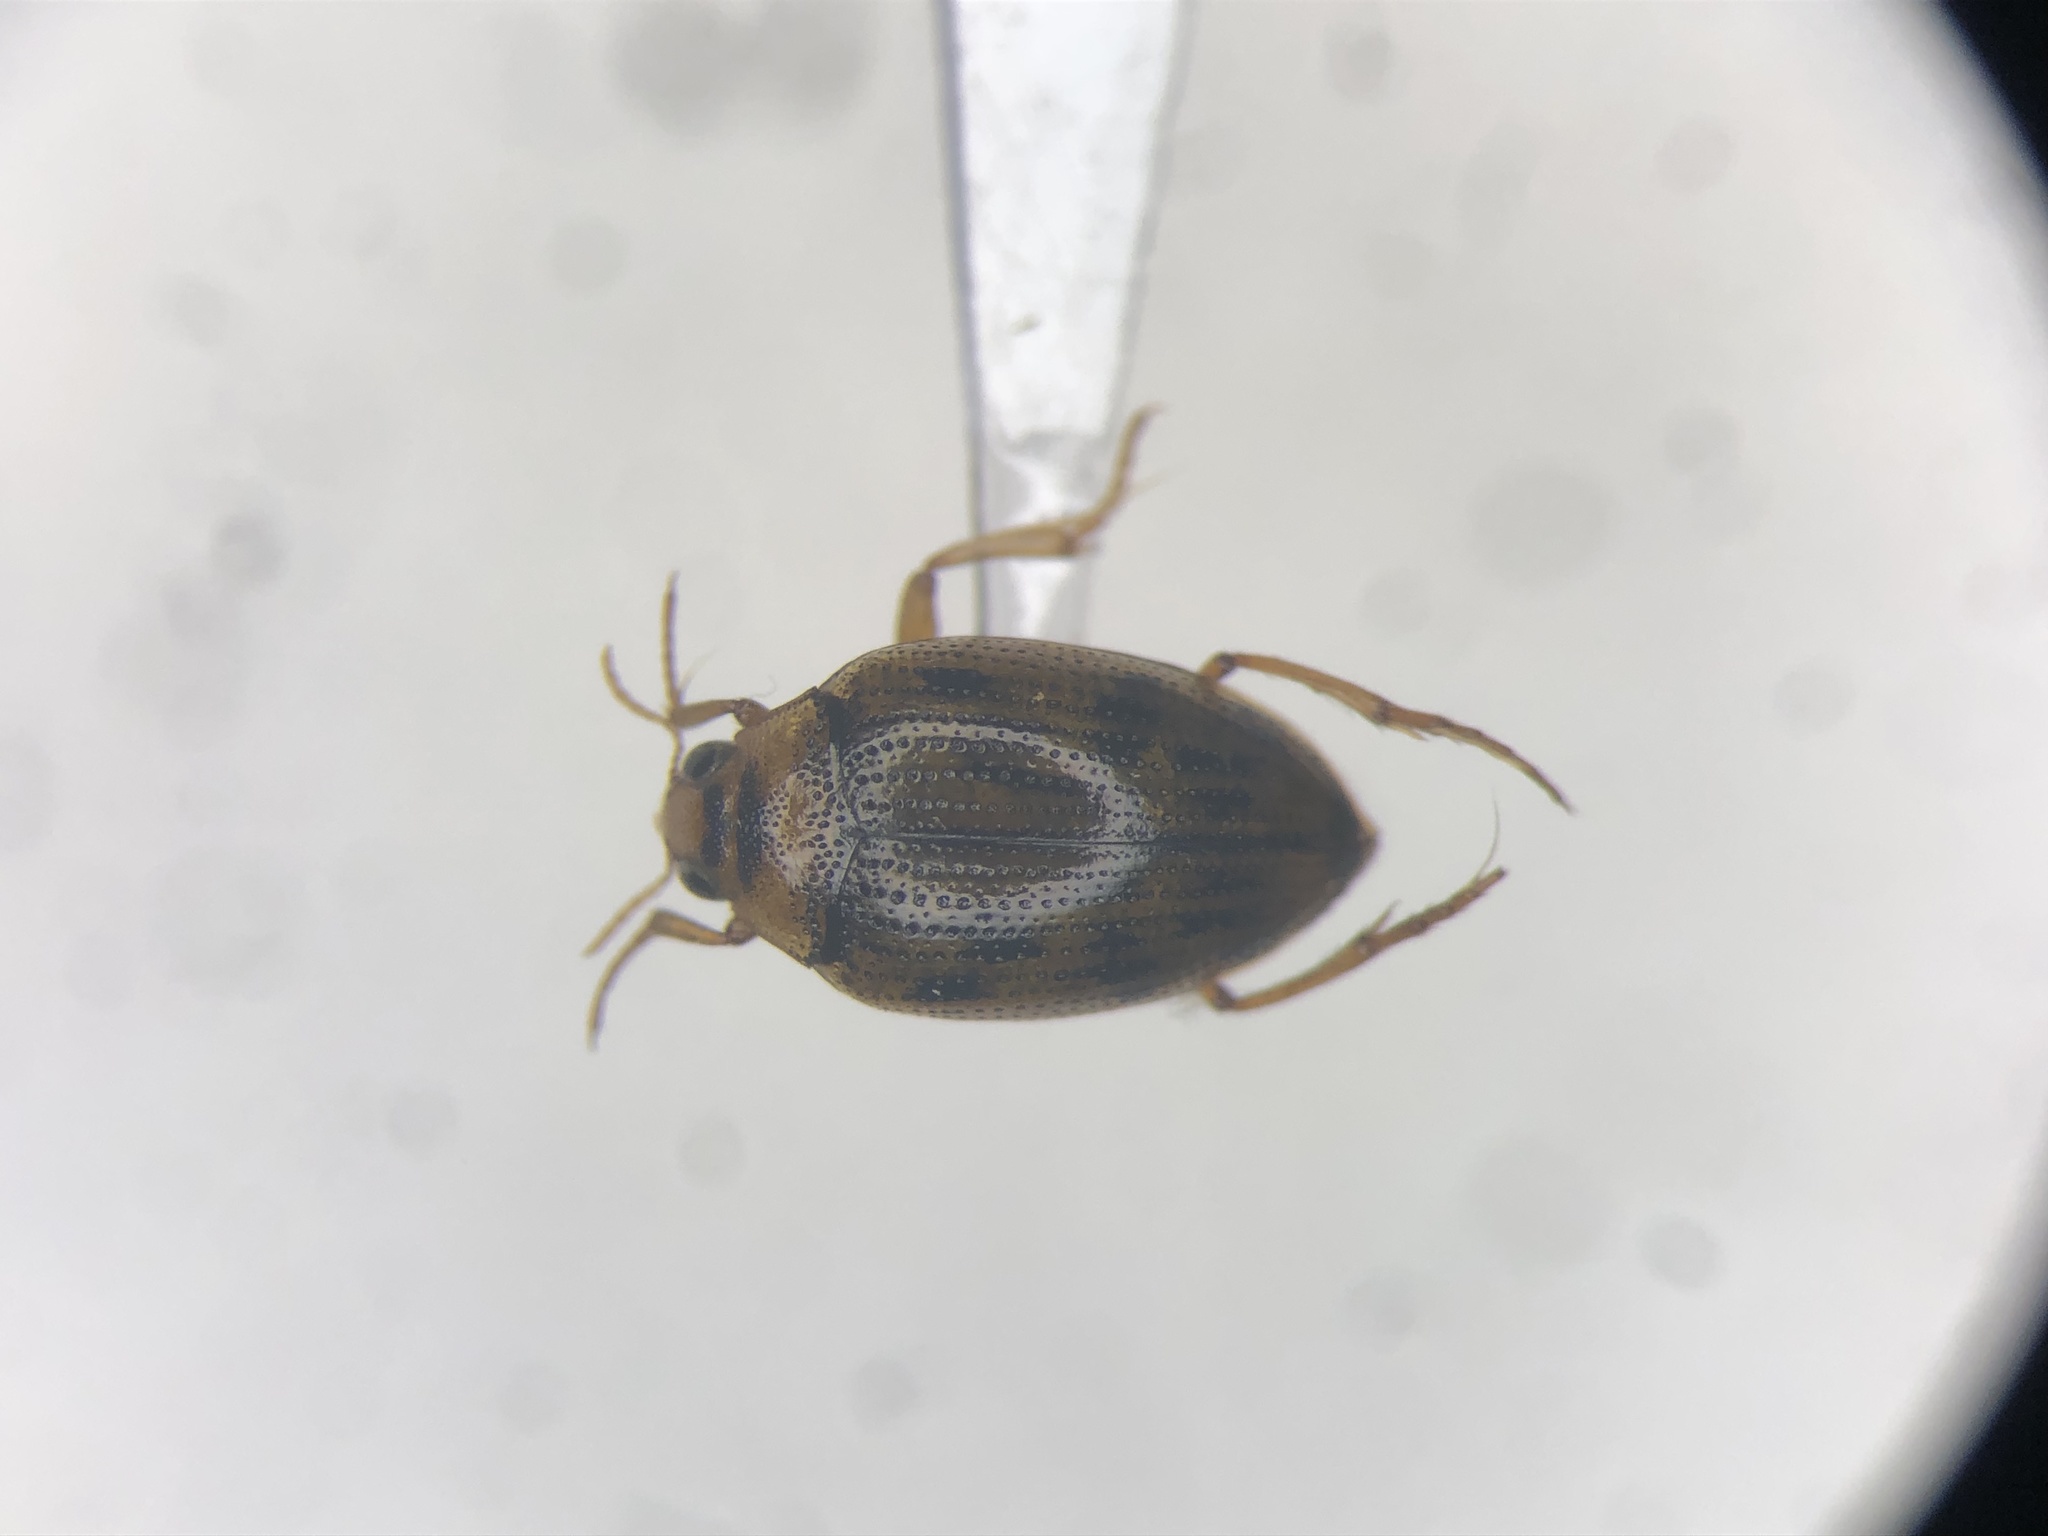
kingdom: Animalia
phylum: Arthropoda
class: Insecta
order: Coleoptera
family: Haliplidae
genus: Haliplus
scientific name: Haliplus cribrarius
